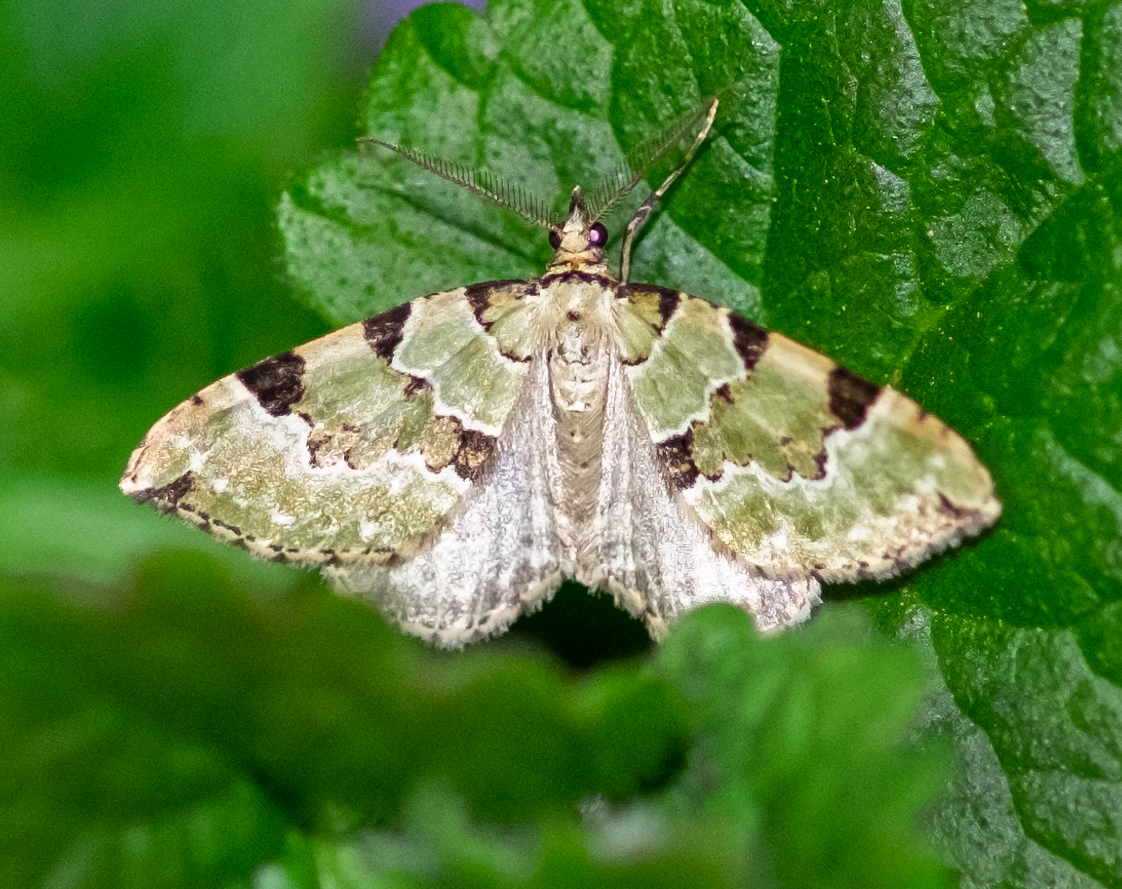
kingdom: Animalia
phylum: Arthropoda
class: Insecta
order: Lepidoptera
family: Geometridae
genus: Colostygia
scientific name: Colostygia pectinataria
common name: Green carpet
